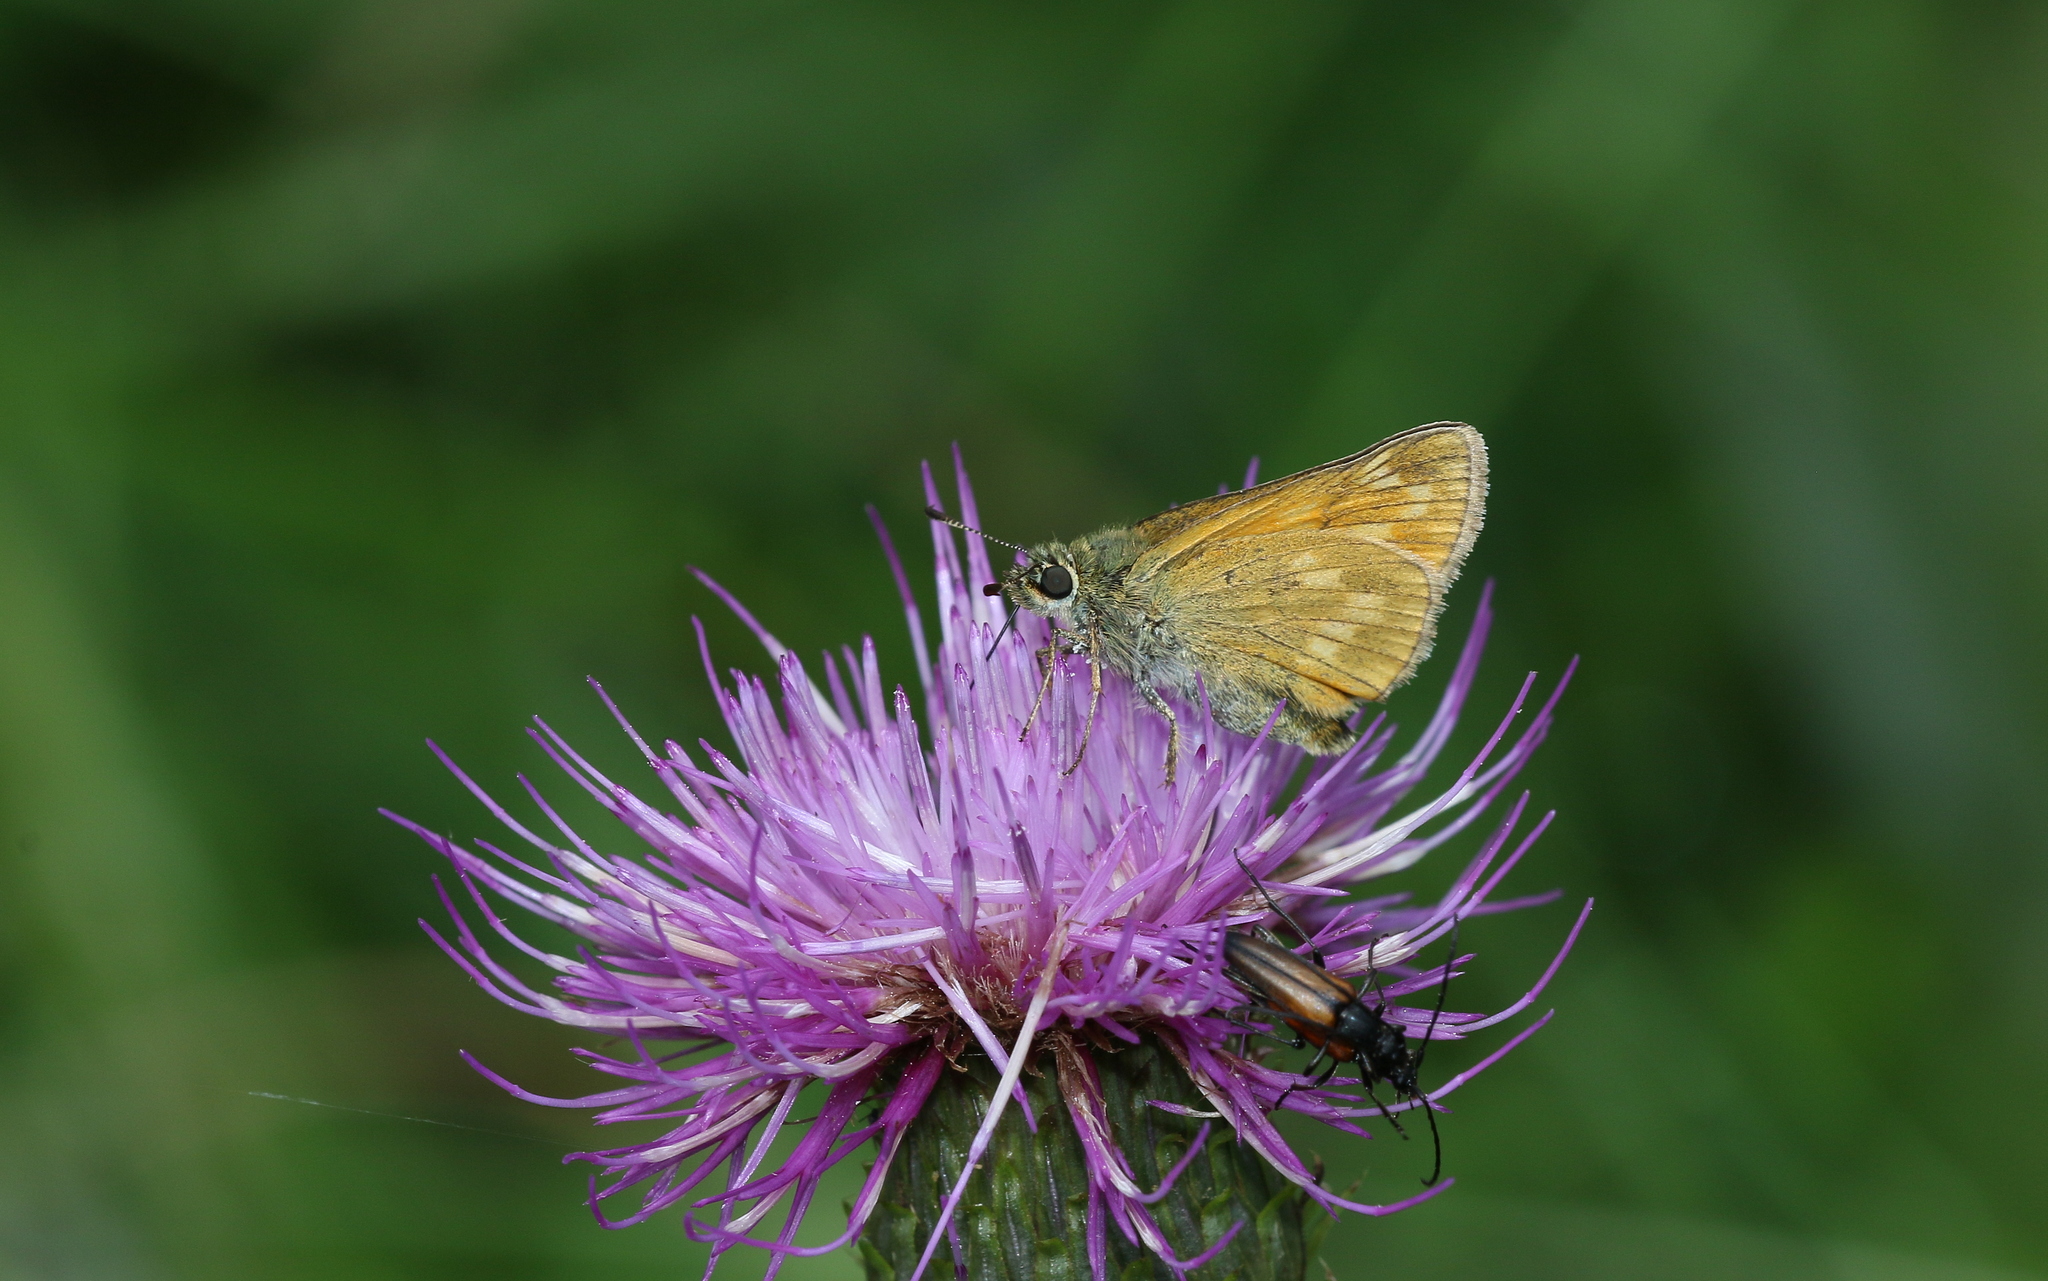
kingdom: Animalia
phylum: Arthropoda
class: Insecta
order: Lepidoptera
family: Hesperiidae
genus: Ochlodes
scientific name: Ochlodes venata
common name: Large skipper
